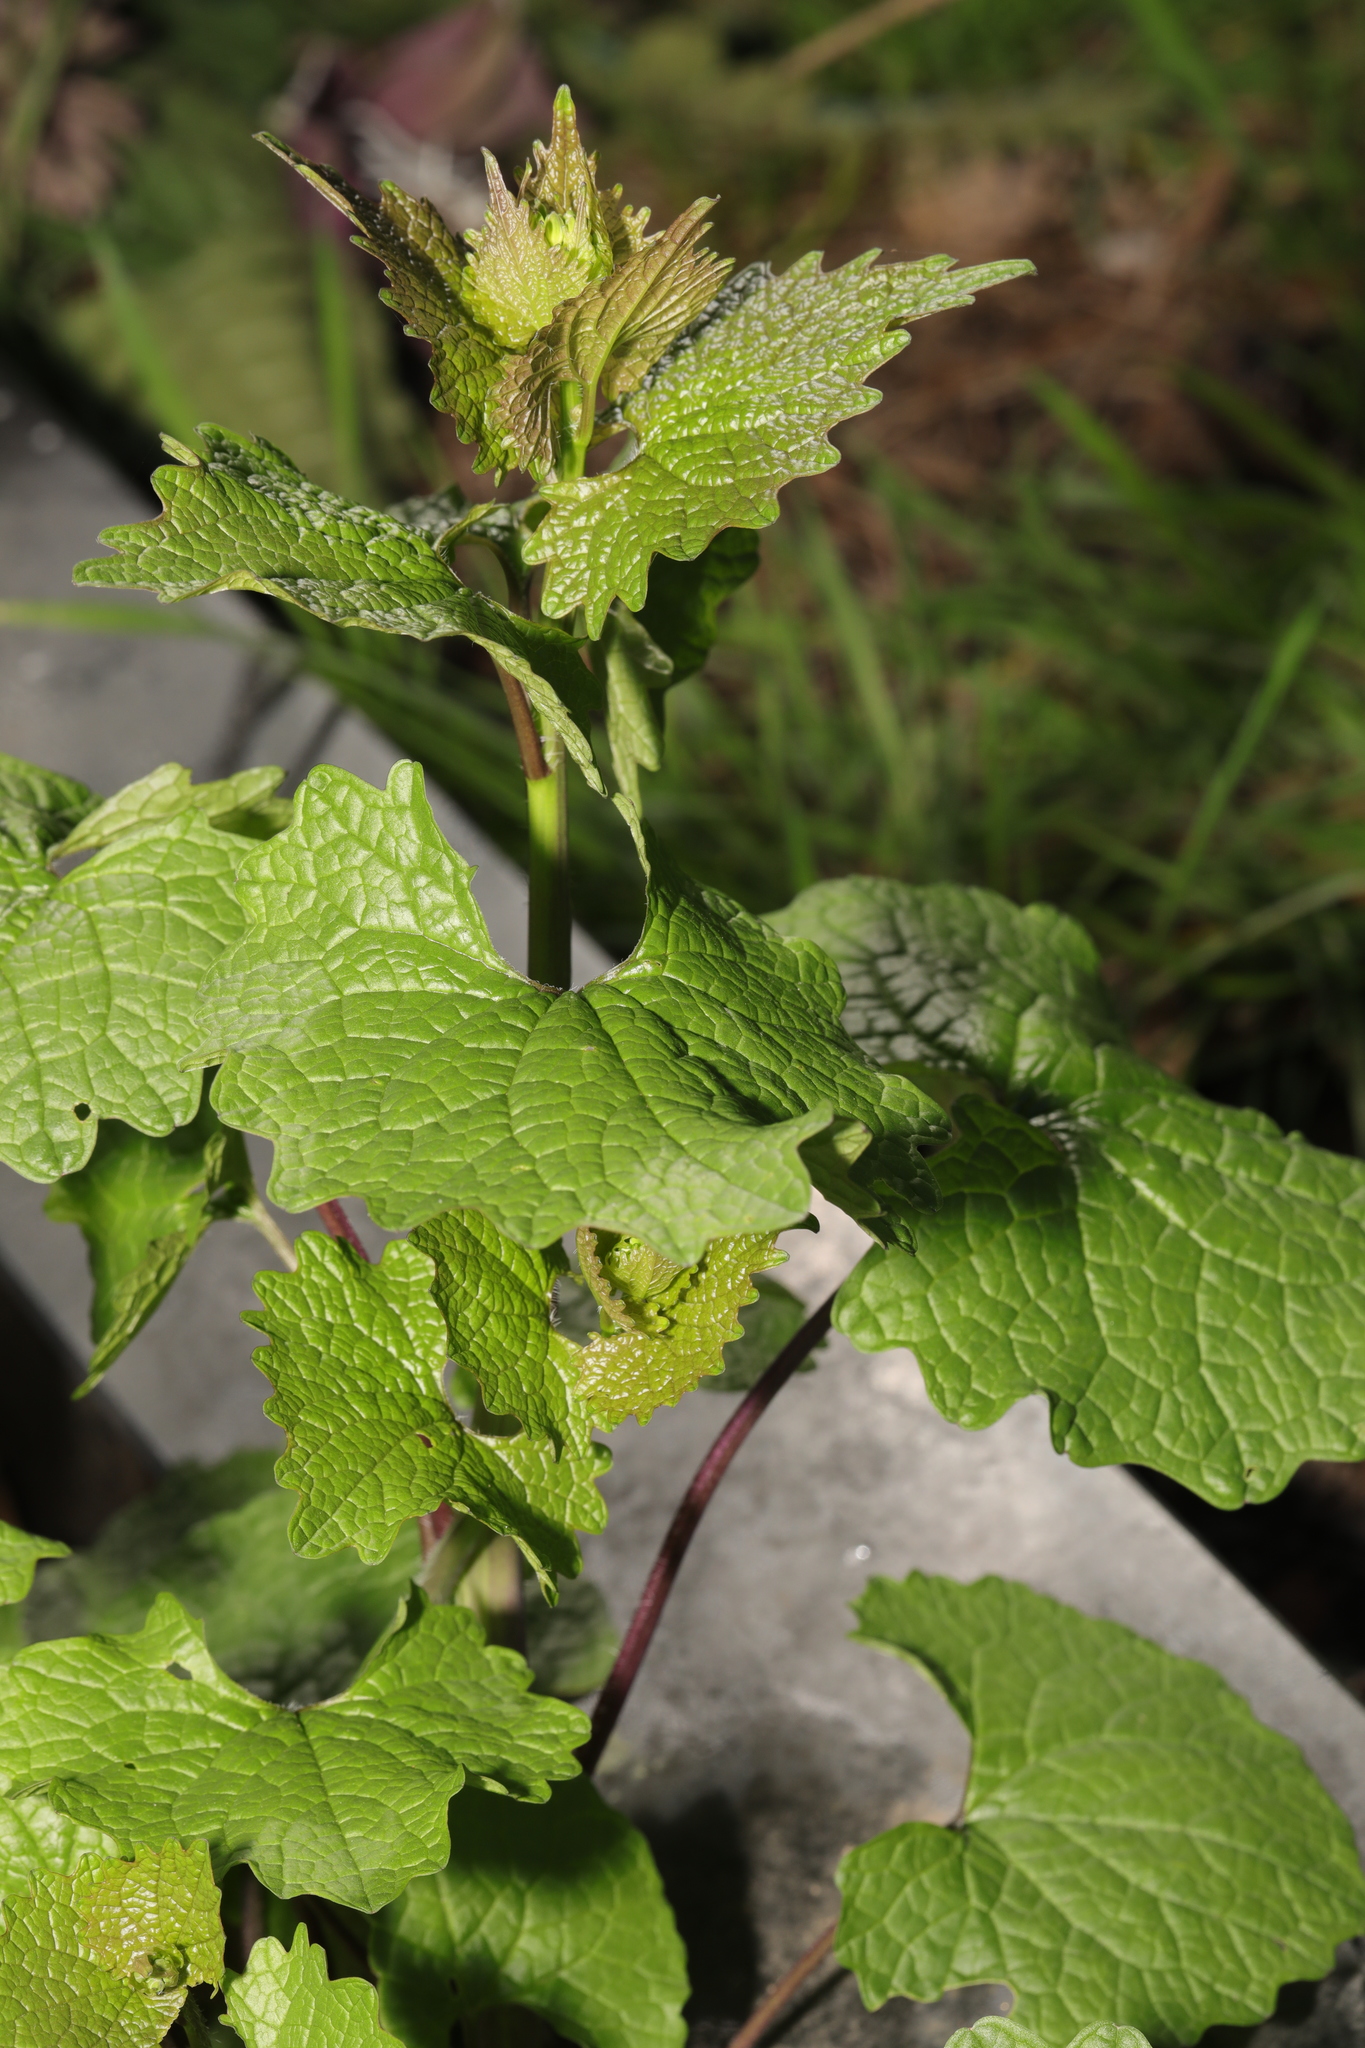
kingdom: Plantae
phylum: Tracheophyta
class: Magnoliopsida
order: Brassicales
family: Brassicaceae
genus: Alliaria
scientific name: Alliaria petiolata
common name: Garlic mustard
